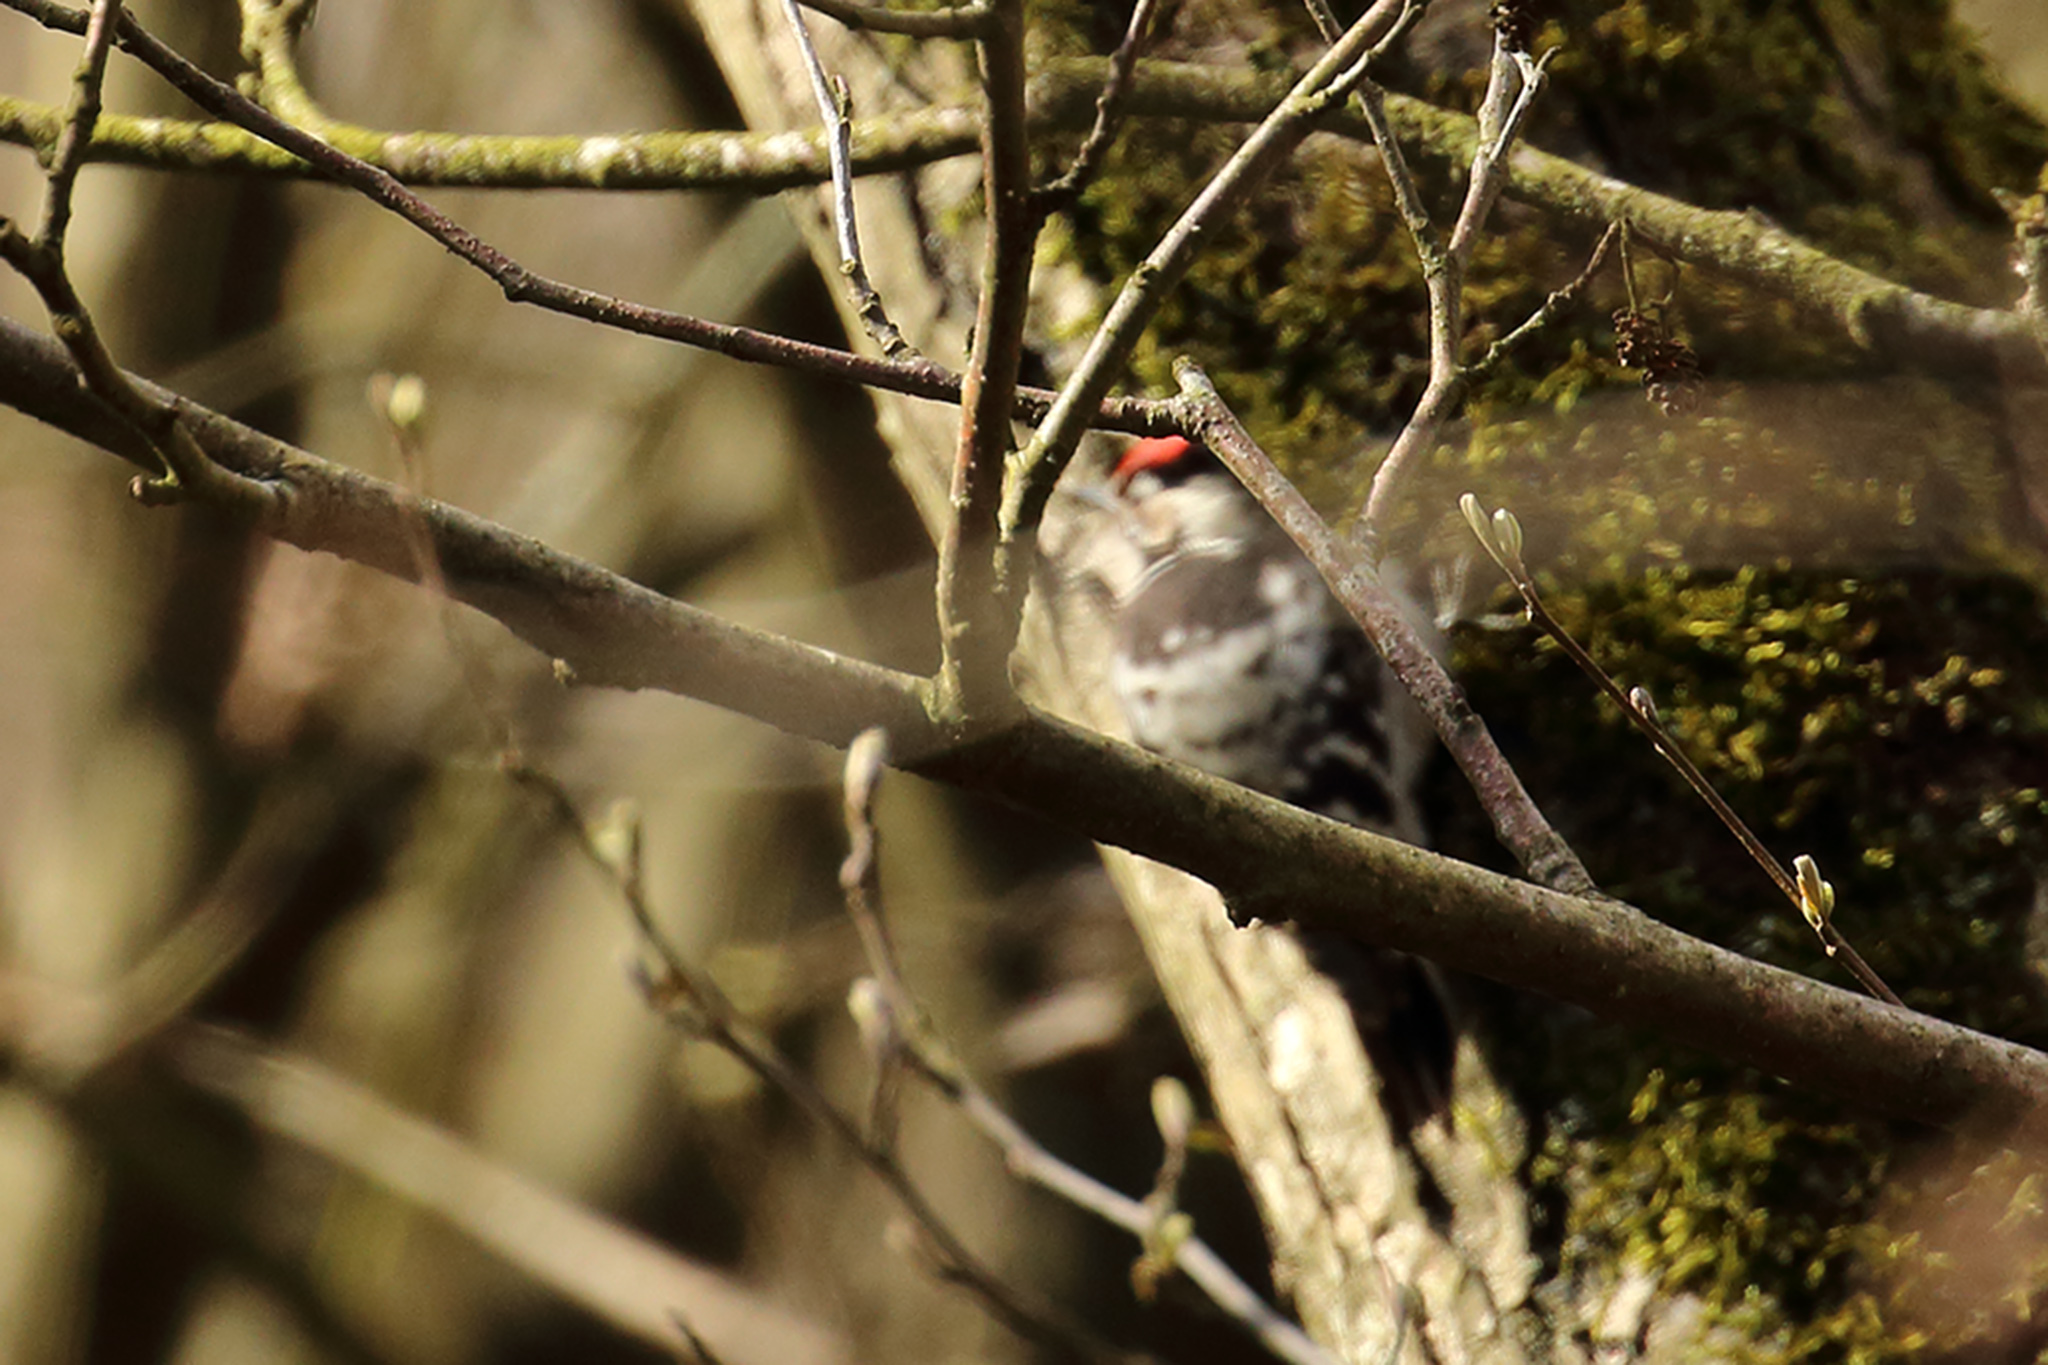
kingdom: Animalia
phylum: Chordata
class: Aves
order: Piciformes
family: Picidae
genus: Dryobates
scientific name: Dryobates minor
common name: Lesser spotted woodpecker
